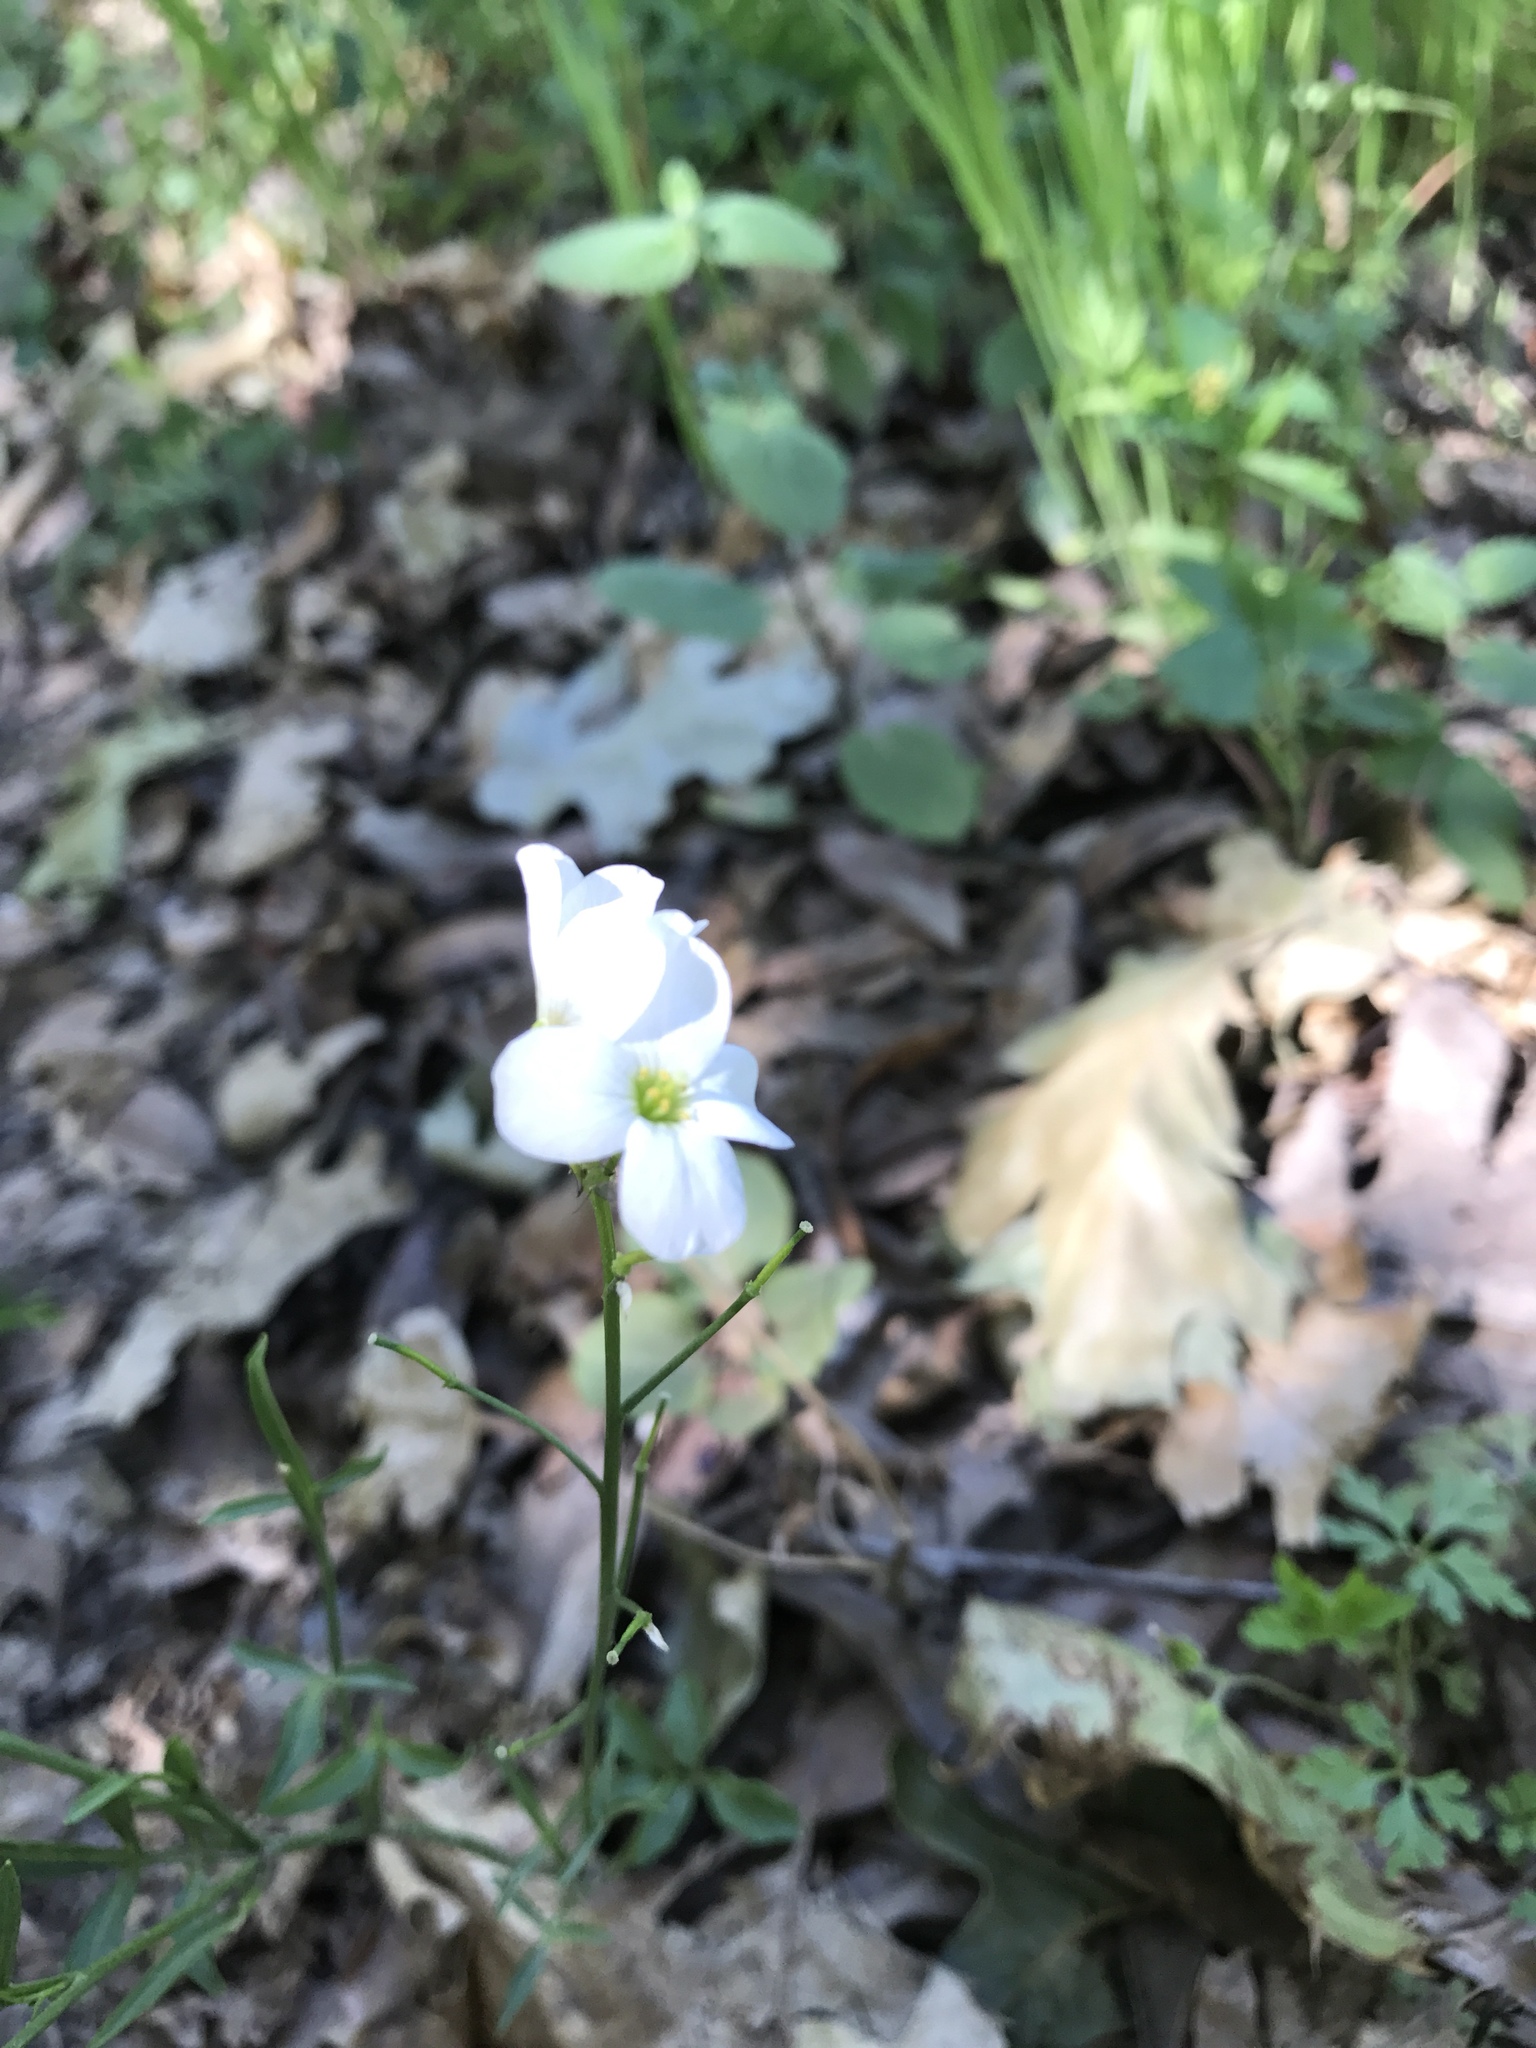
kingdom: Plantae
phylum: Tracheophyta
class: Magnoliopsida
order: Brassicales
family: Brassicaceae
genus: Cardamine
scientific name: Cardamine californica
